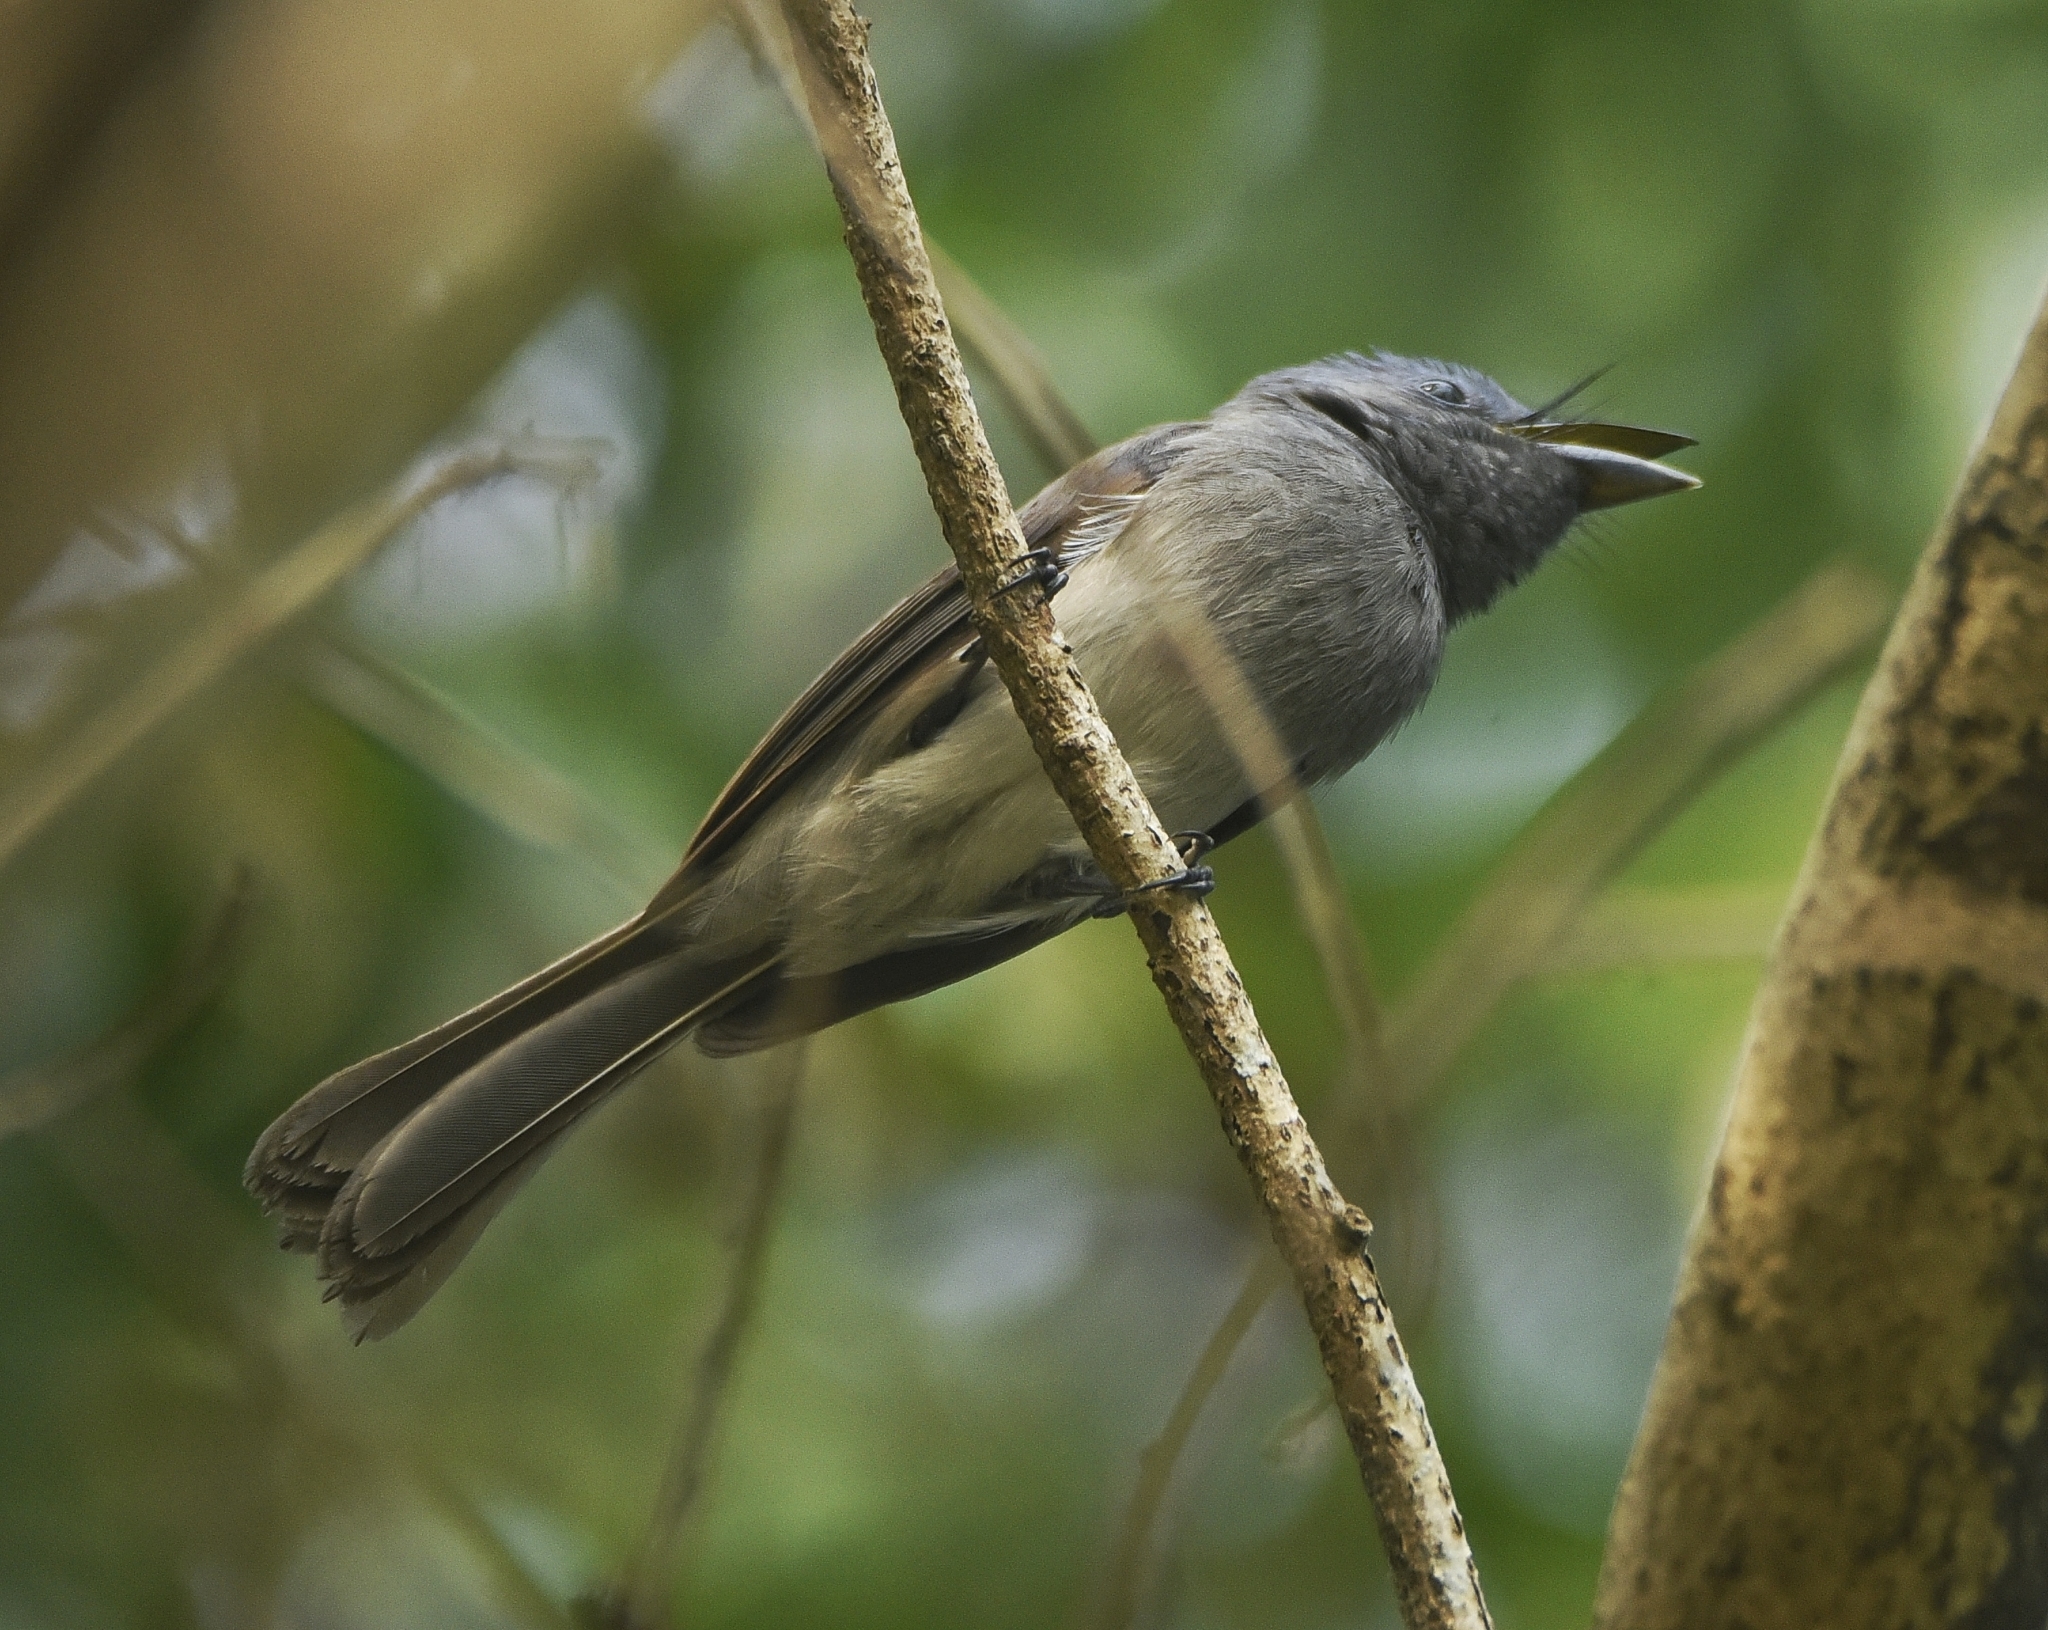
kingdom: Animalia
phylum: Chordata
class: Aves
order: Passeriformes
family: Monarchidae
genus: Hypothymis
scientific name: Hypothymis azurea
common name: Black-naped monarch
